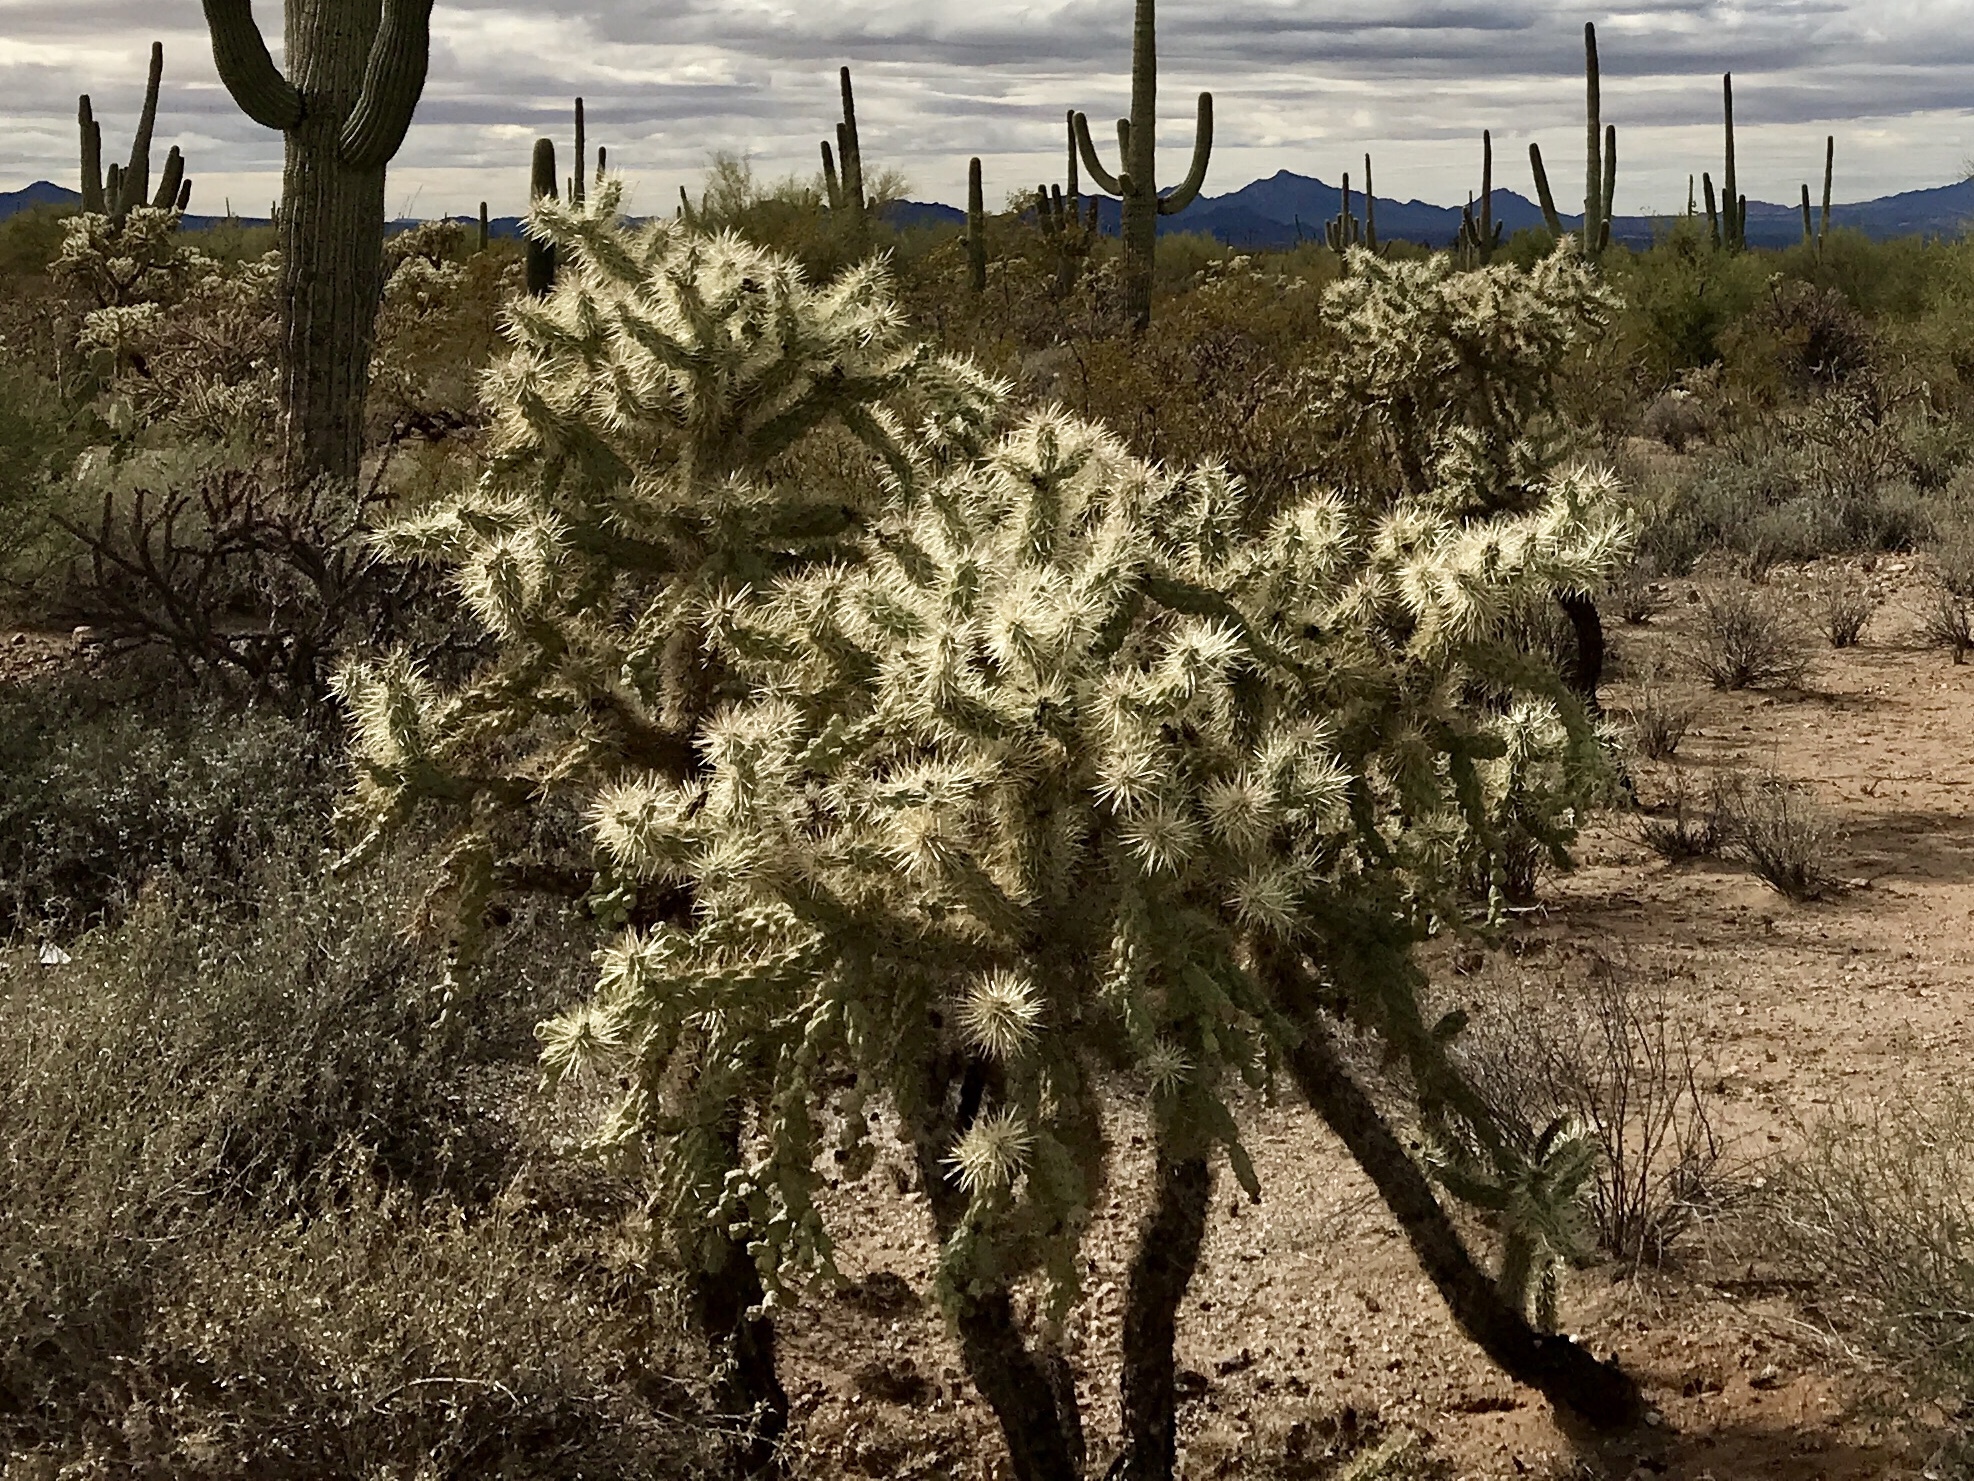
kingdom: Plantae
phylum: Tracheophyta
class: Magnoliopsida
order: Caryophyllales
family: Cactaceae
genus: Cylindropuntia
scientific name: Cylindropuntia fulgida
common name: Jumping cholla
